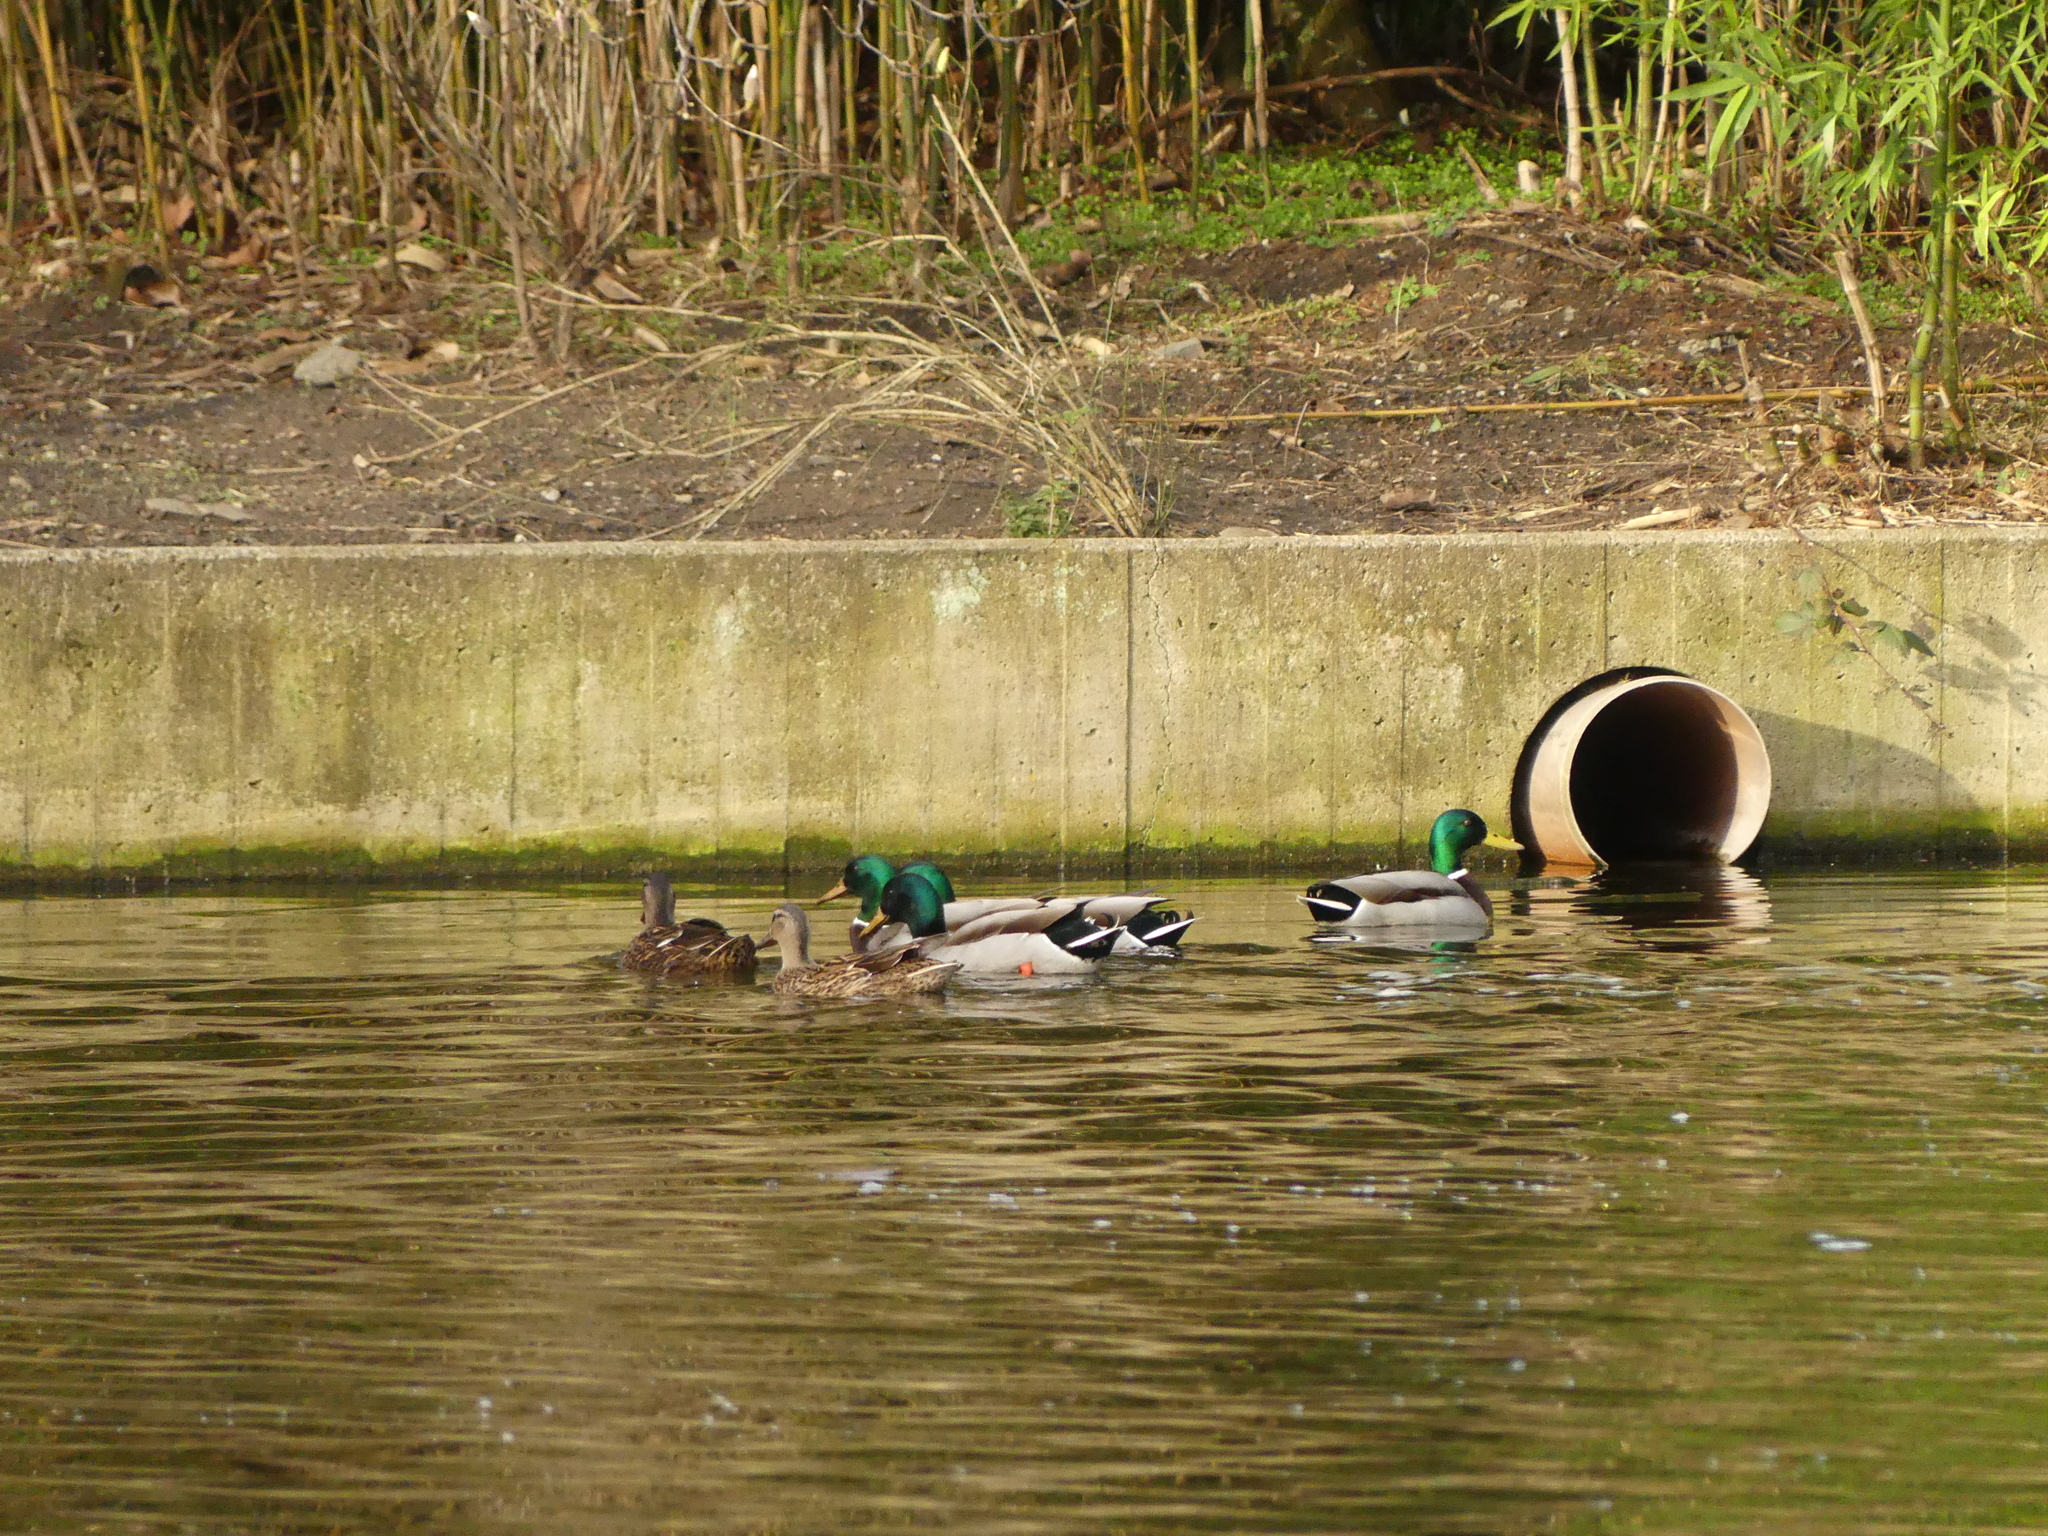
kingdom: Animalia
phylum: Chordata
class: Aves
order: Anseriformes
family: Anatidae
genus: Anas
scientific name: Anas platyrhynchos
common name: Mallard
